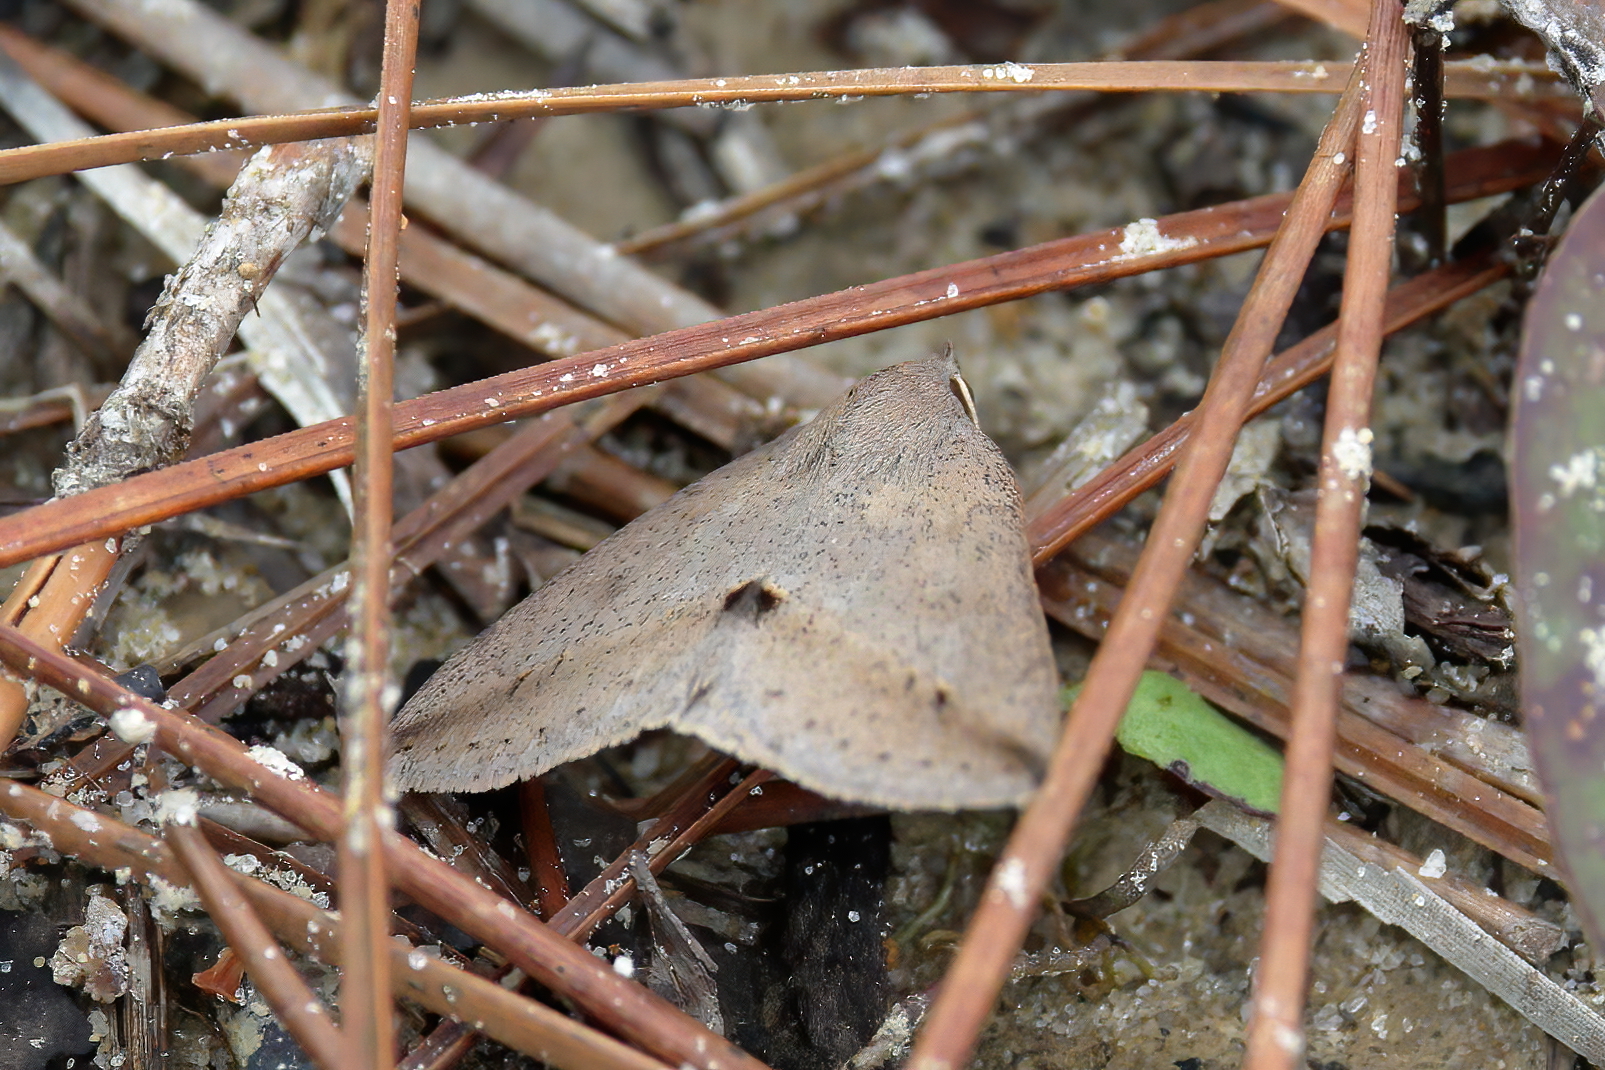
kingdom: Animalia
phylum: Arthropoda
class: Insecta
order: Lepidoptera
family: Erebidae
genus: Argyrostrotis
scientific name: Argyrostrotis flavistriaria
